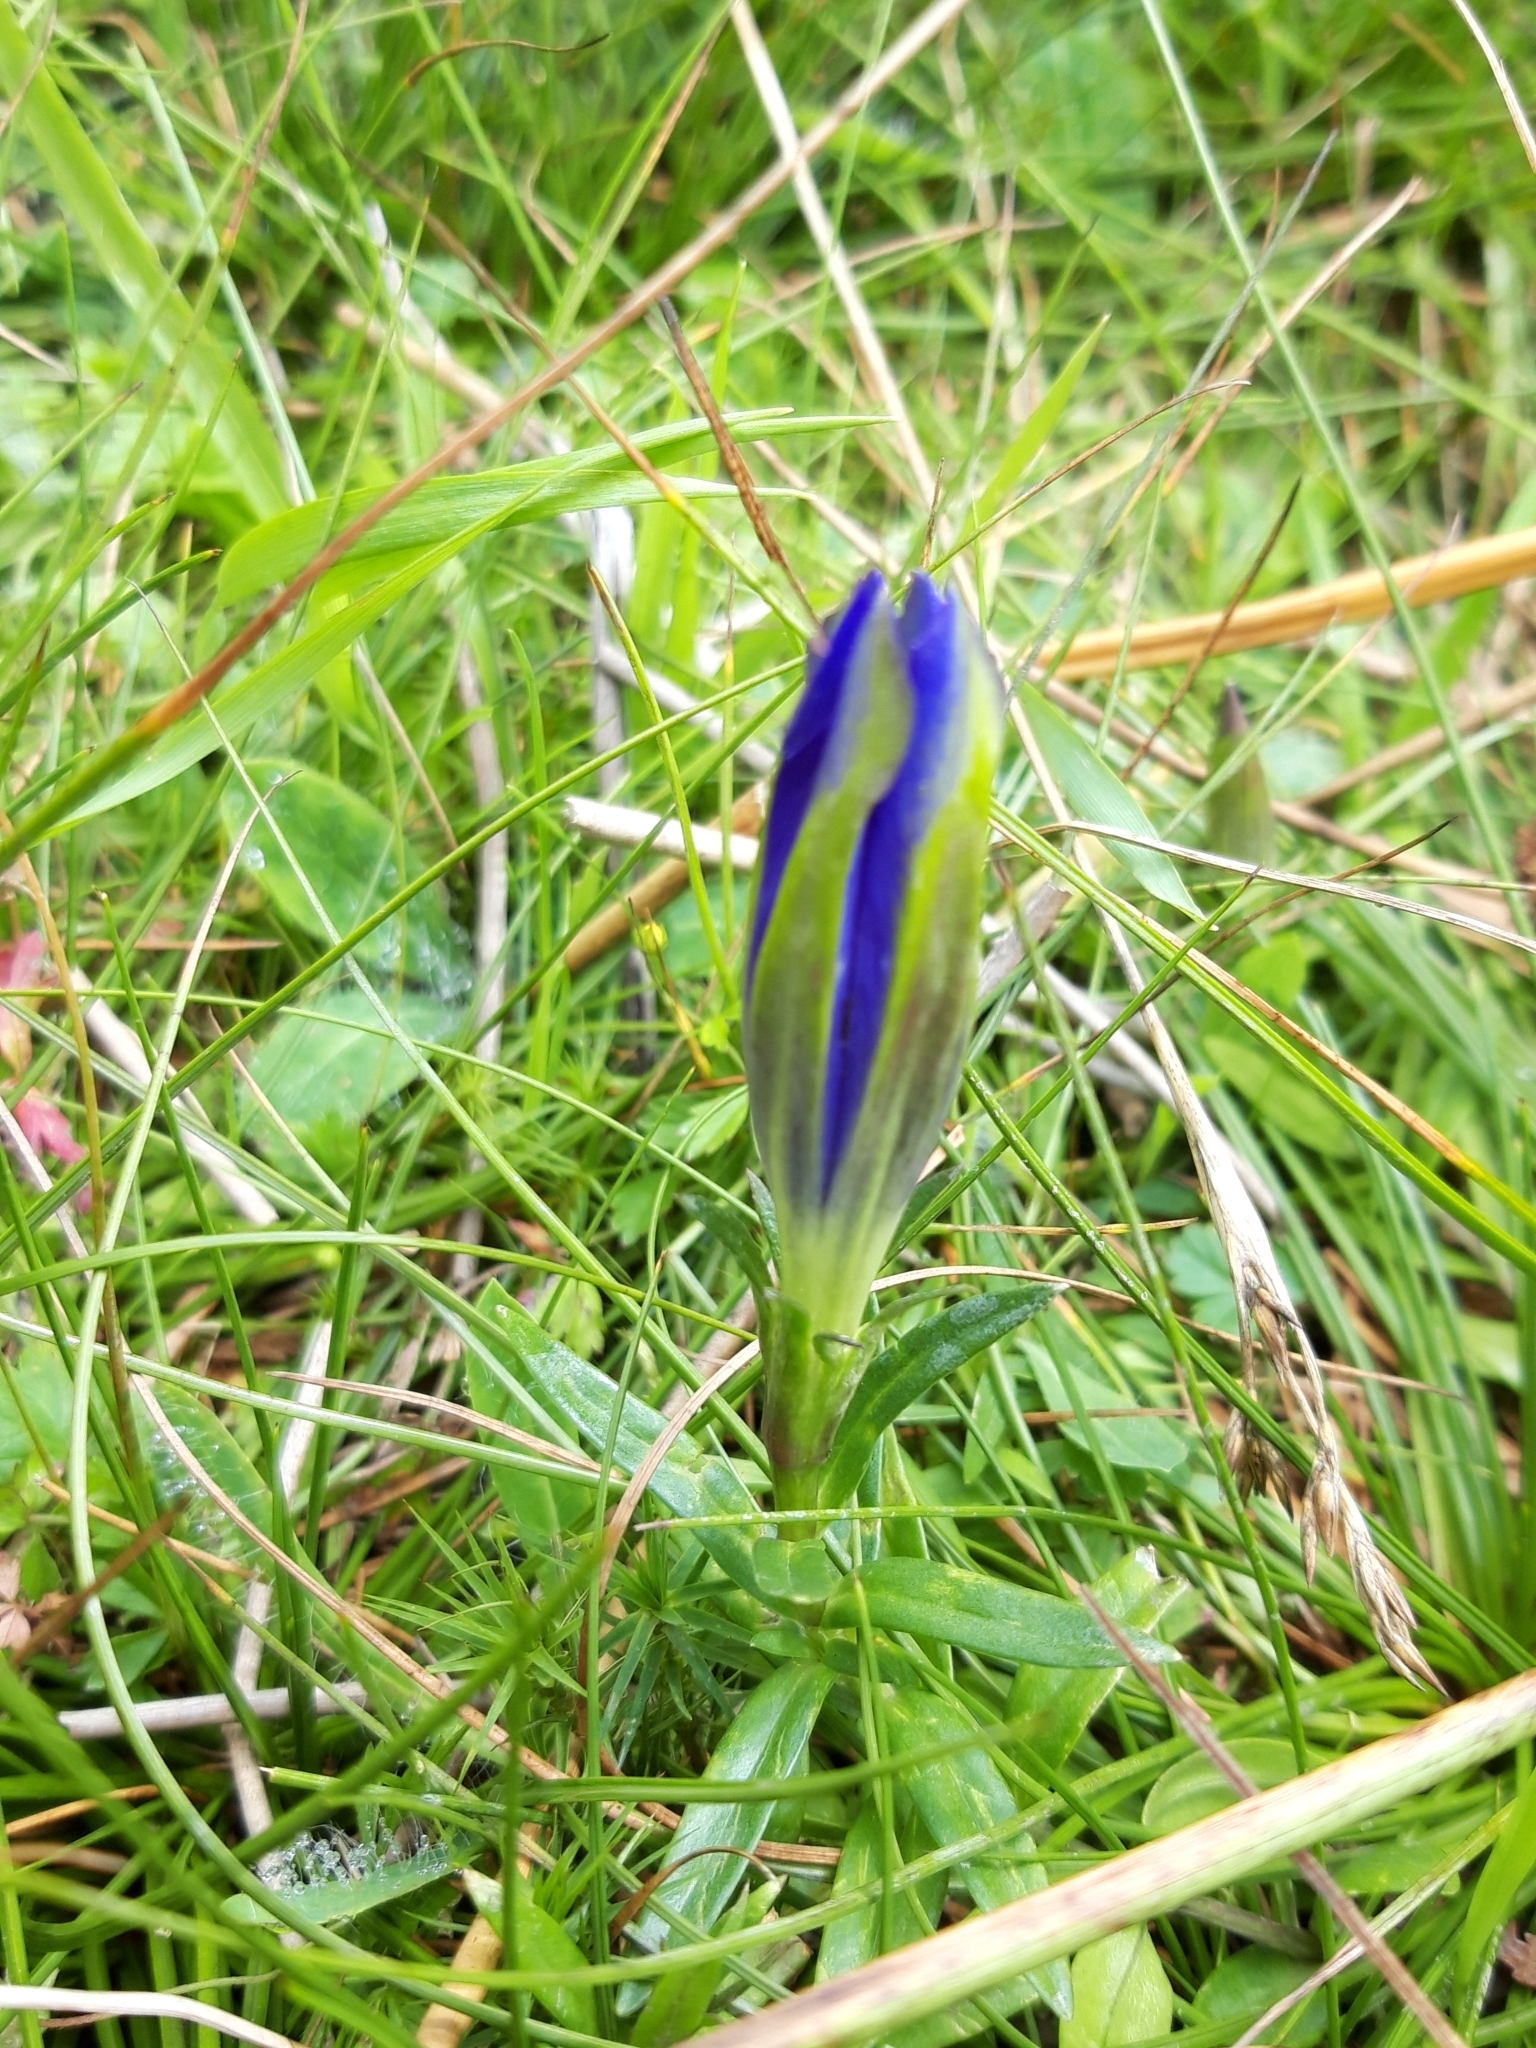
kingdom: Plantae
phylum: Tracheophyta
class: Magnoliopsida
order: Gentianales
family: Gentianaceae
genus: Gentiana
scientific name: Gentiana pneumonanthe
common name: Marsh gentian
